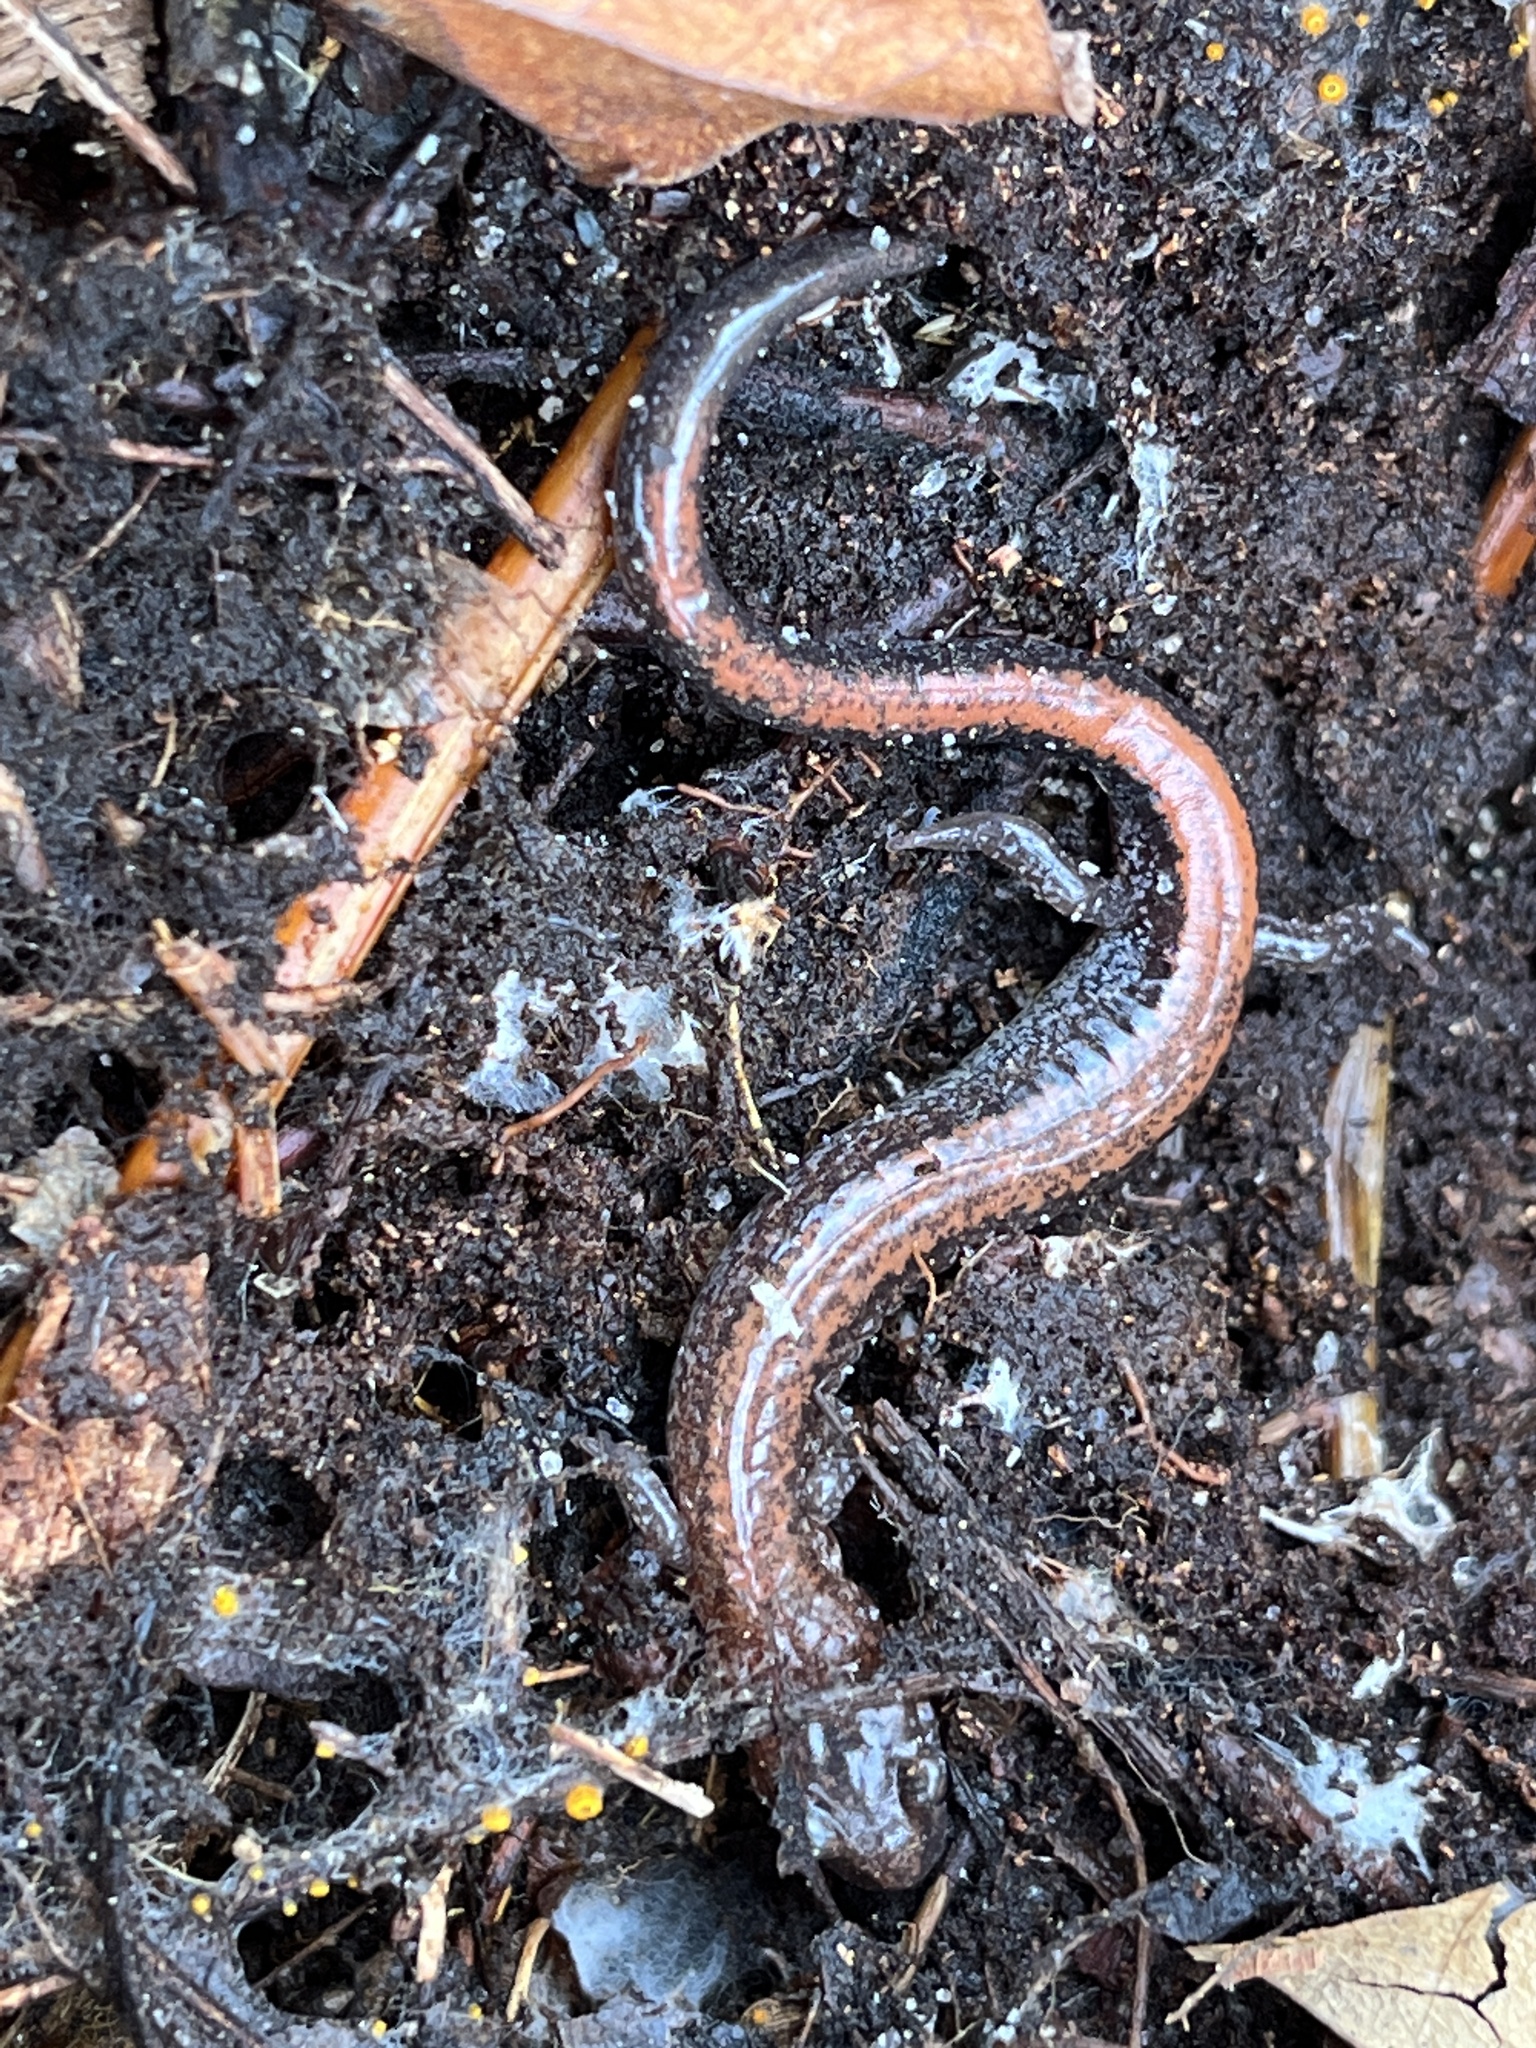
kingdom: Animalia
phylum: Chordata
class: Amphibia
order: Caudata
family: Plethodontidae
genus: Plethodon
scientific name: Plethodon cinereus
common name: Redback salamander
